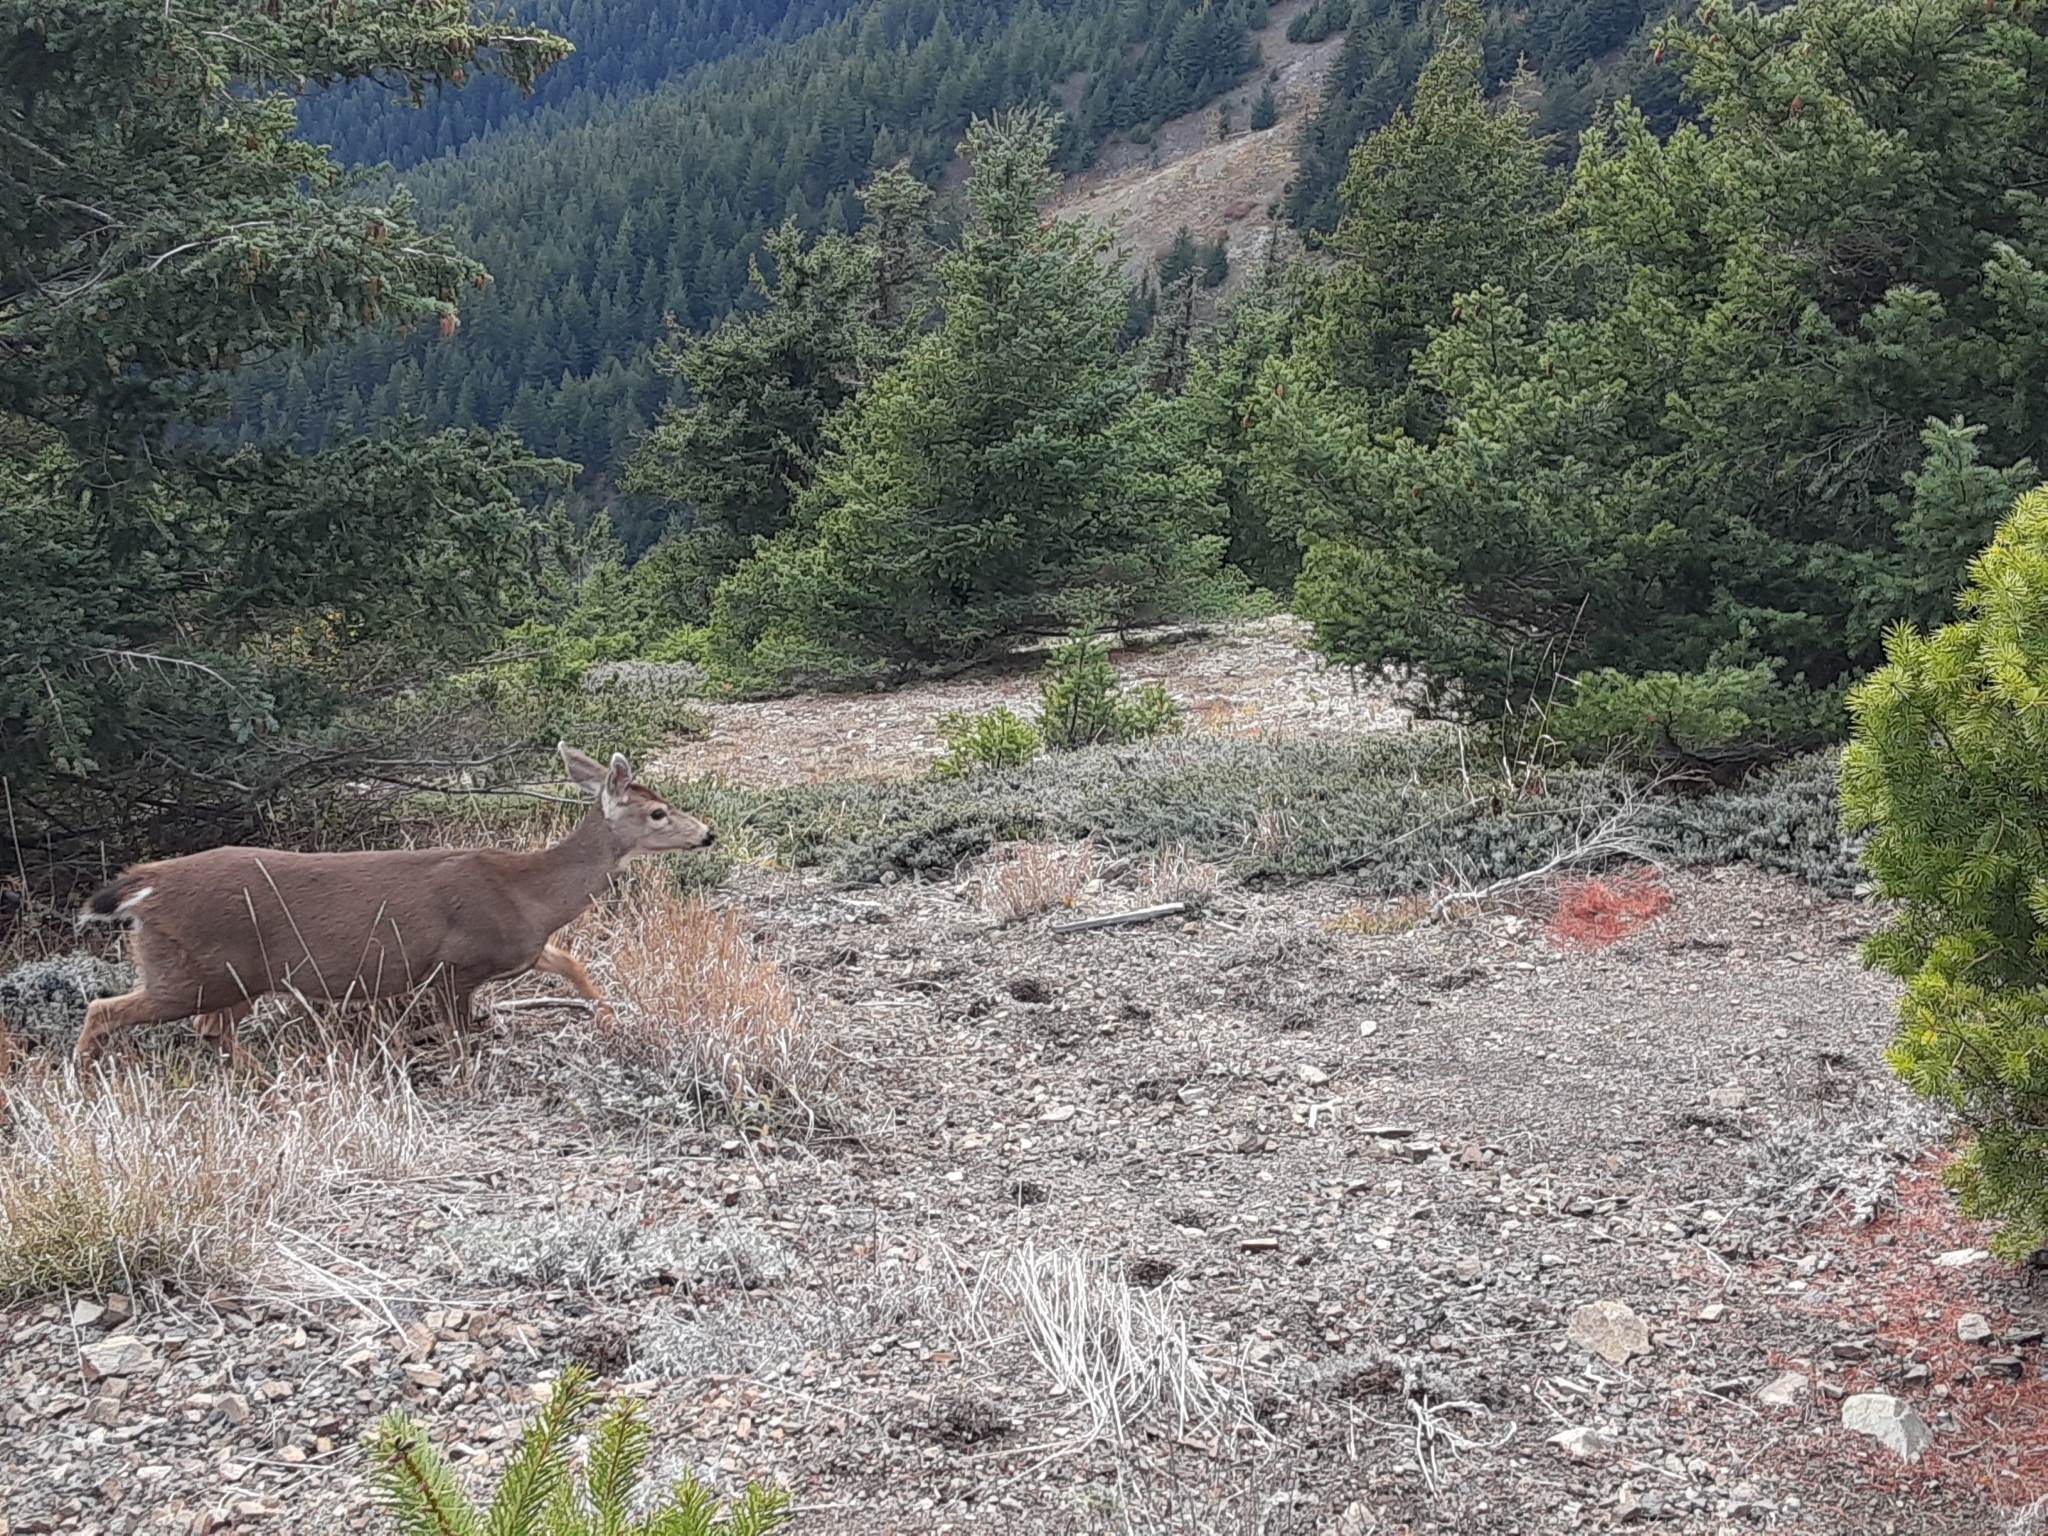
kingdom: Animalia
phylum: Chordata
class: Mammalia
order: Artiodactyla
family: Cervidae
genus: Odocoileus
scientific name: Odocoileus hemionus
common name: Mule deer
